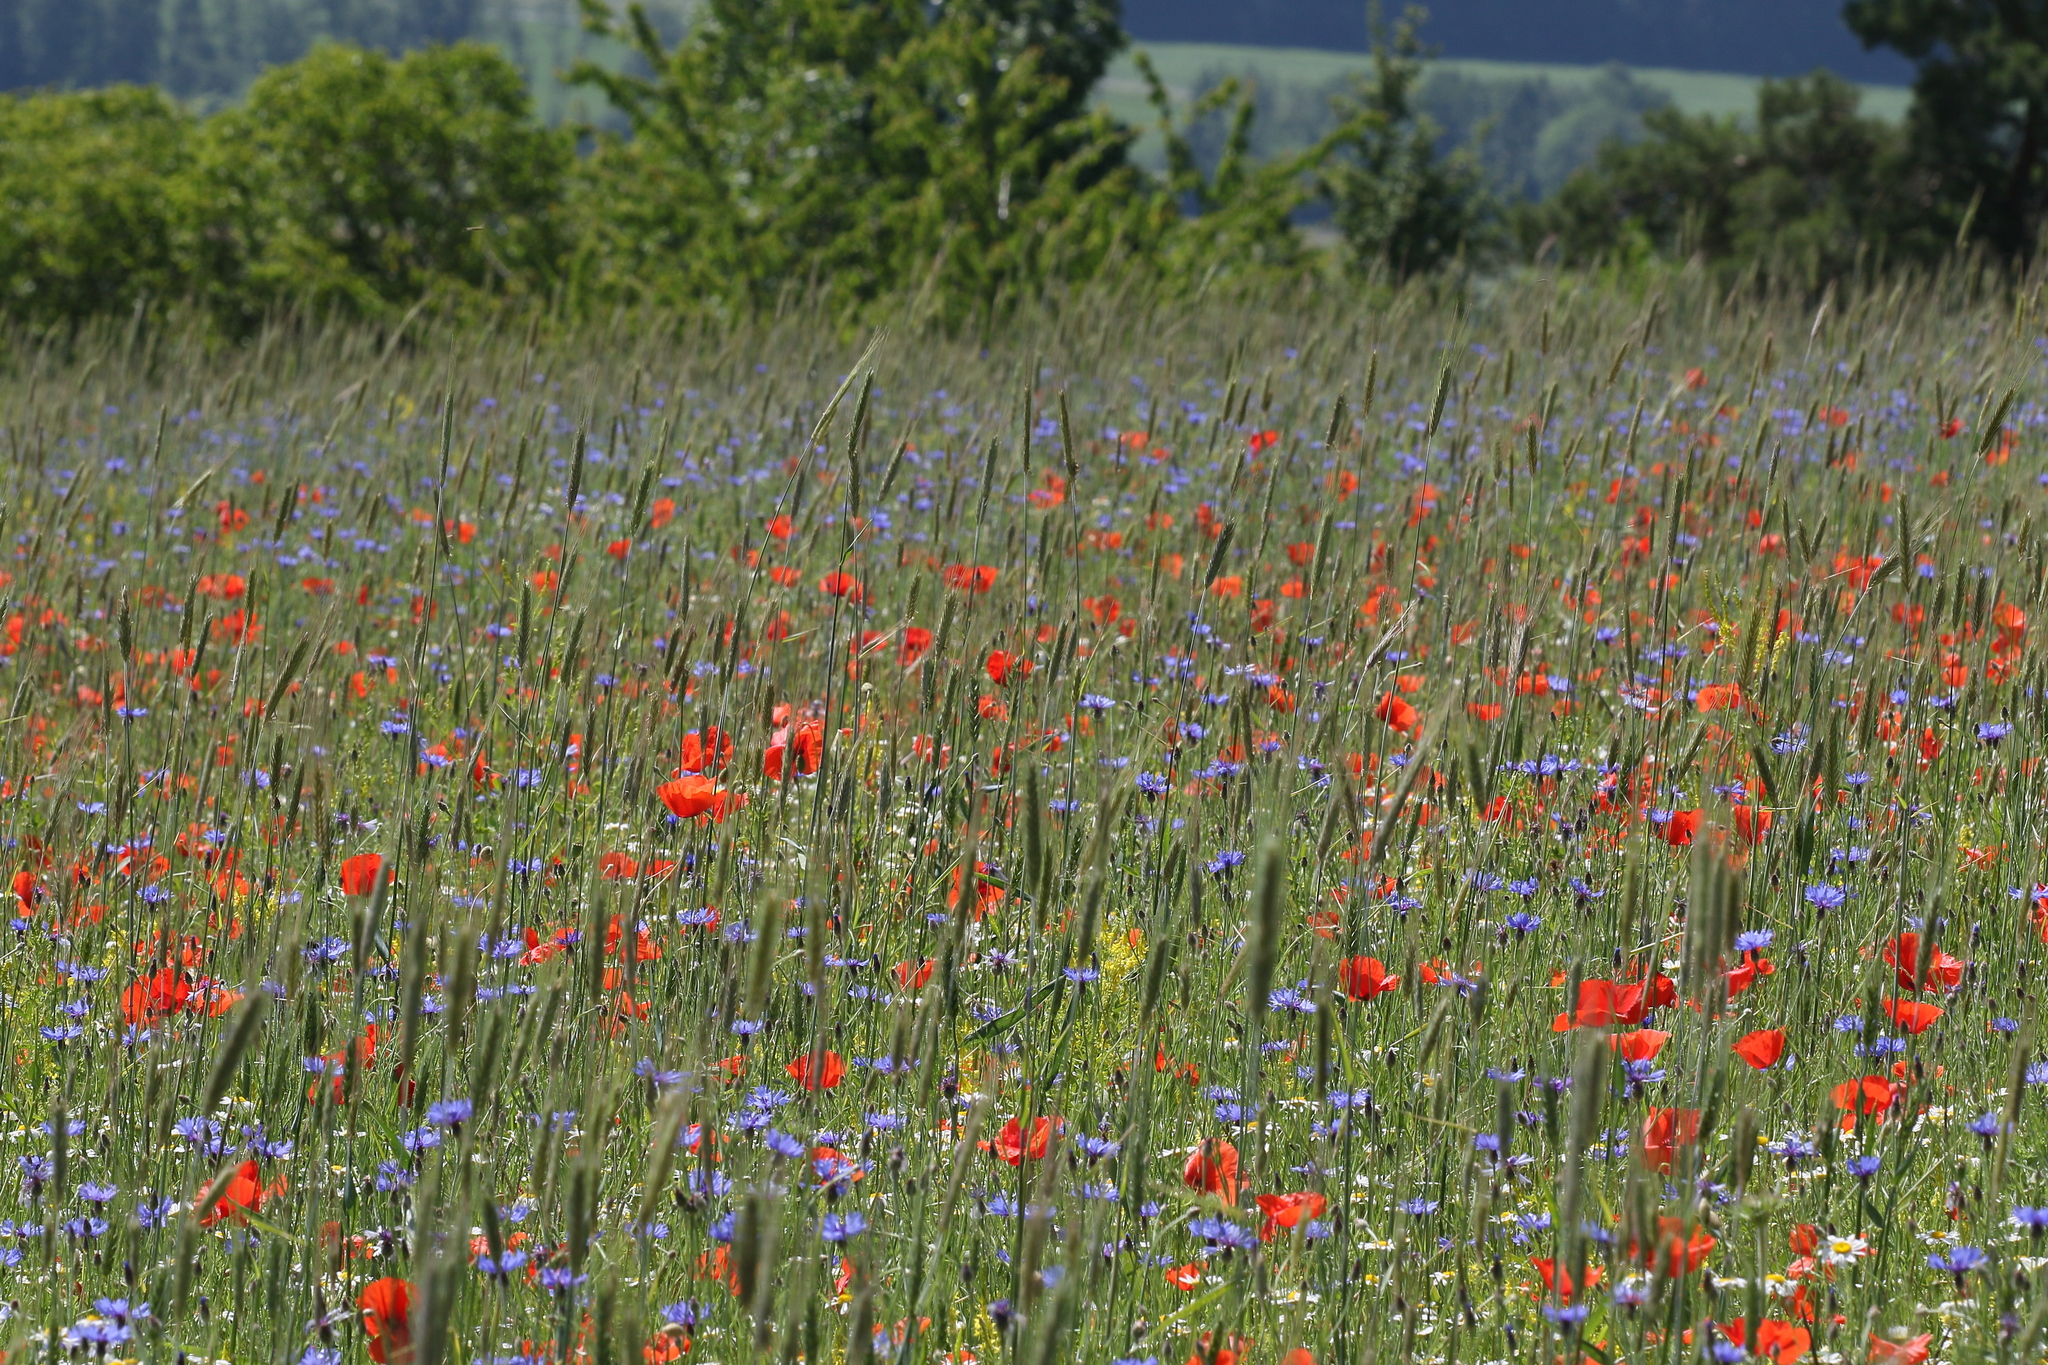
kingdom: Plantae
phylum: Tracheophyta
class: Magnoliopsida
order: Asterales
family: Asteraceae
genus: Centaurea
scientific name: Centaurea cyanus
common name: Cornflower
